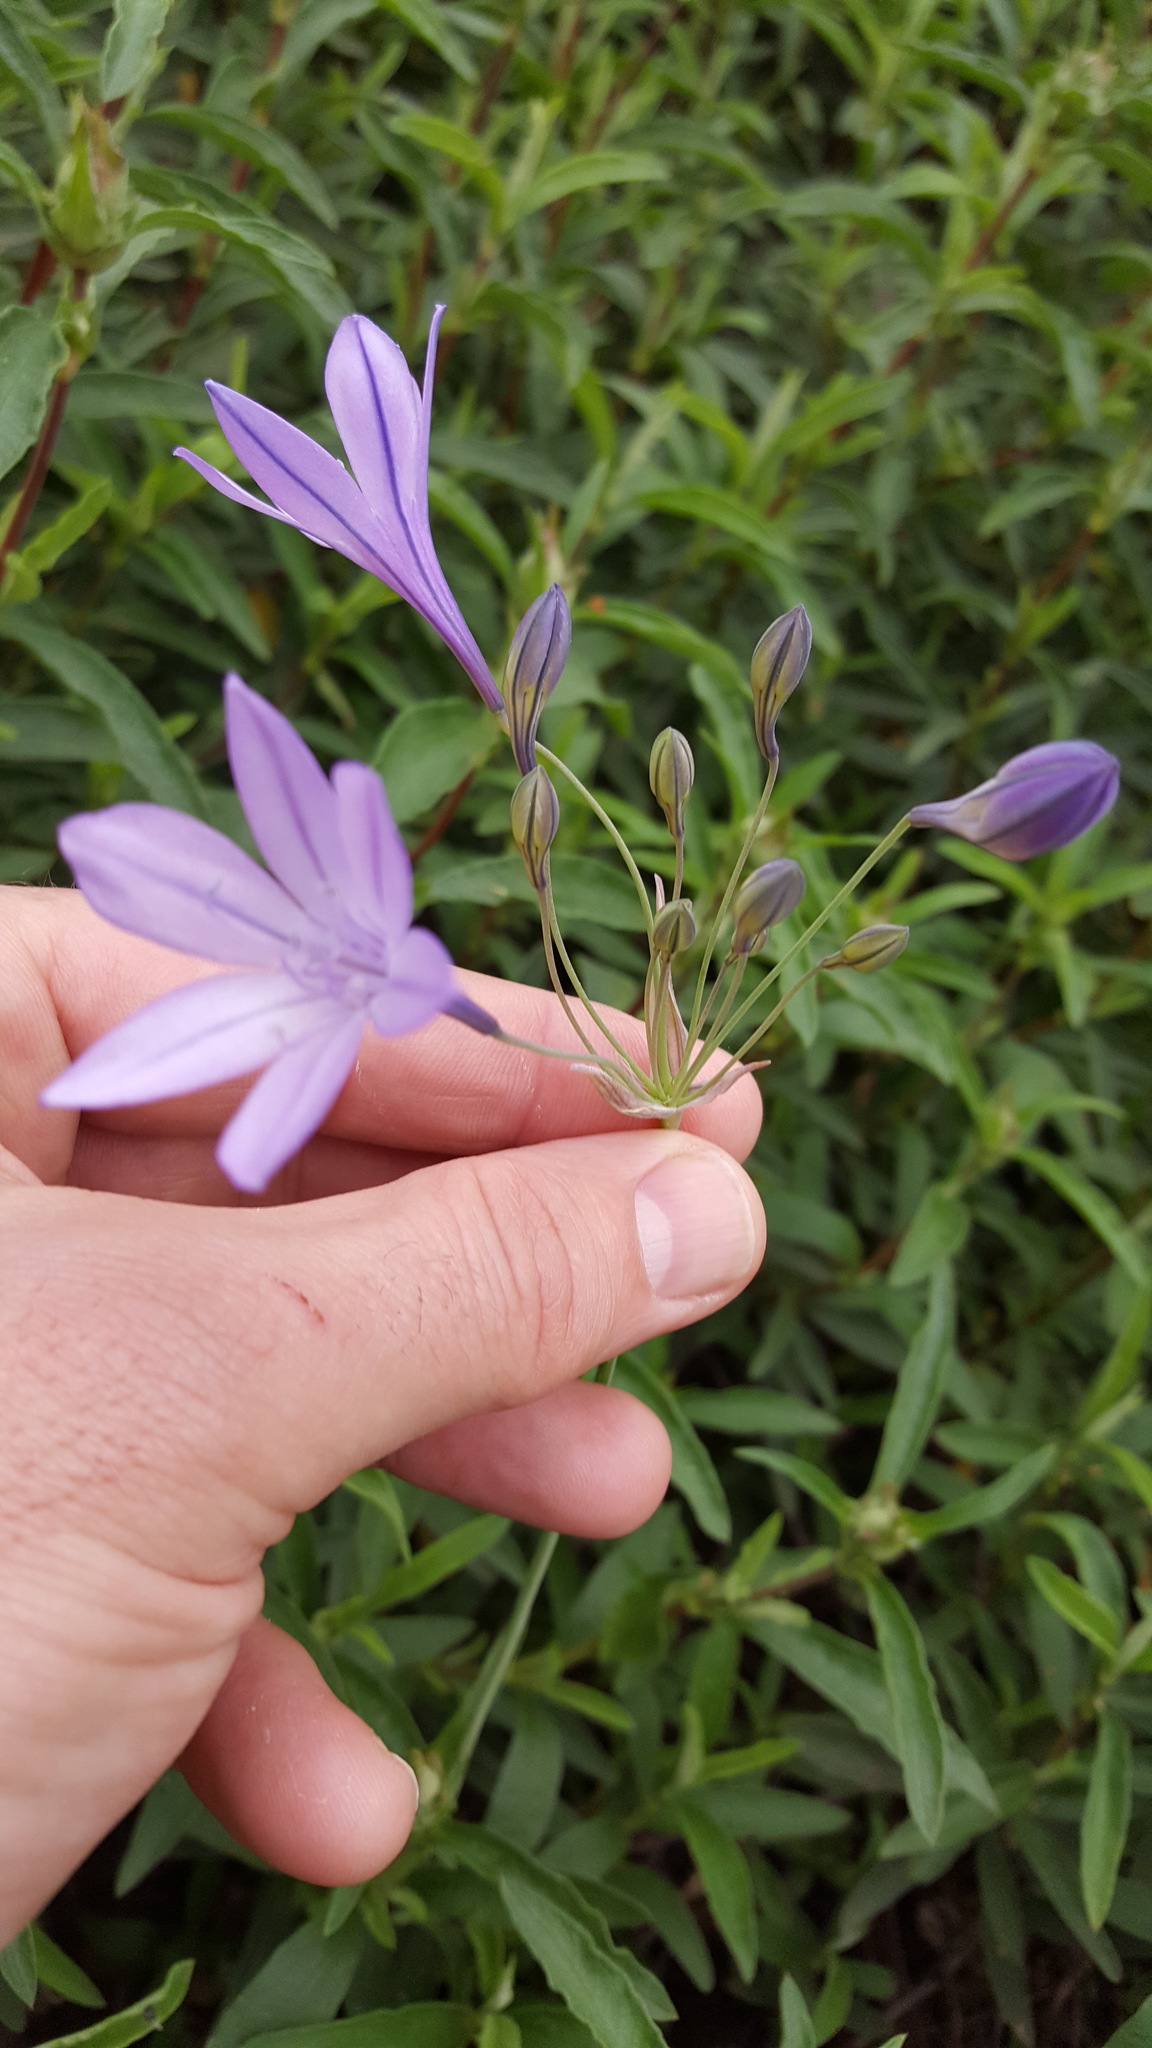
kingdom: Plantae
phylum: Tracheophyta
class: Liliopsida
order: Asparagales
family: Asparagaceae
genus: Triteleia
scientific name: Triteleia laxa
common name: Triplet-lily
